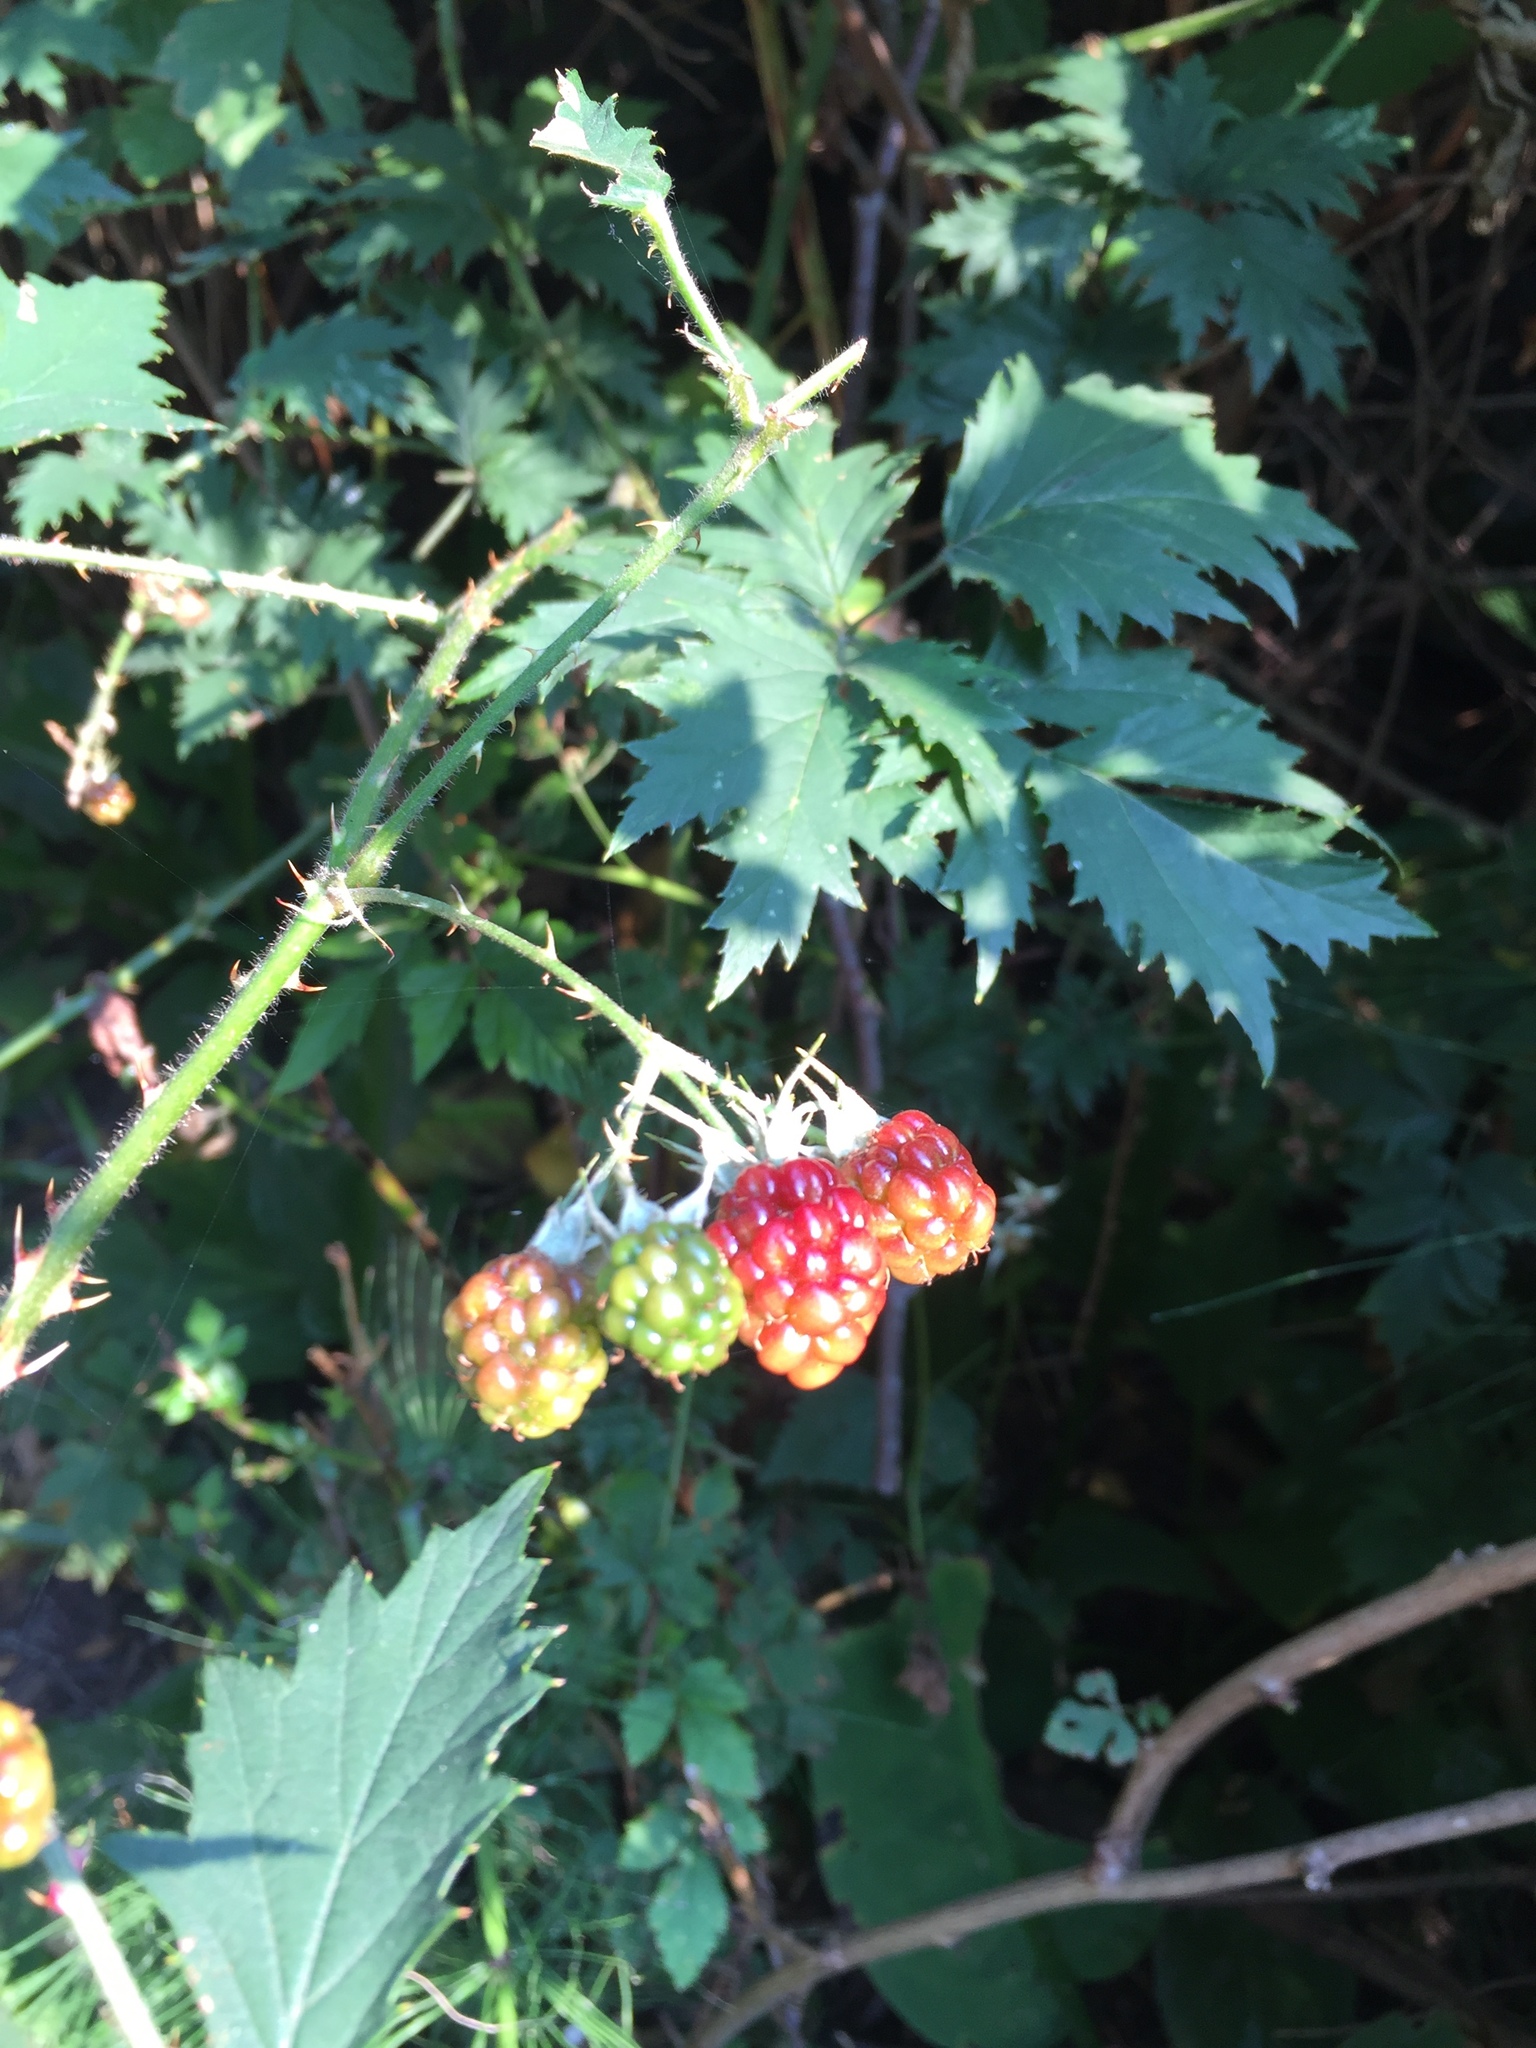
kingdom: Plantae
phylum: Tracheophyta
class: Magnoliopsida
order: Rosales
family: Rosaceae
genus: Rubus
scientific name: Rubus laciniatus
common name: Evergreen blackberry
